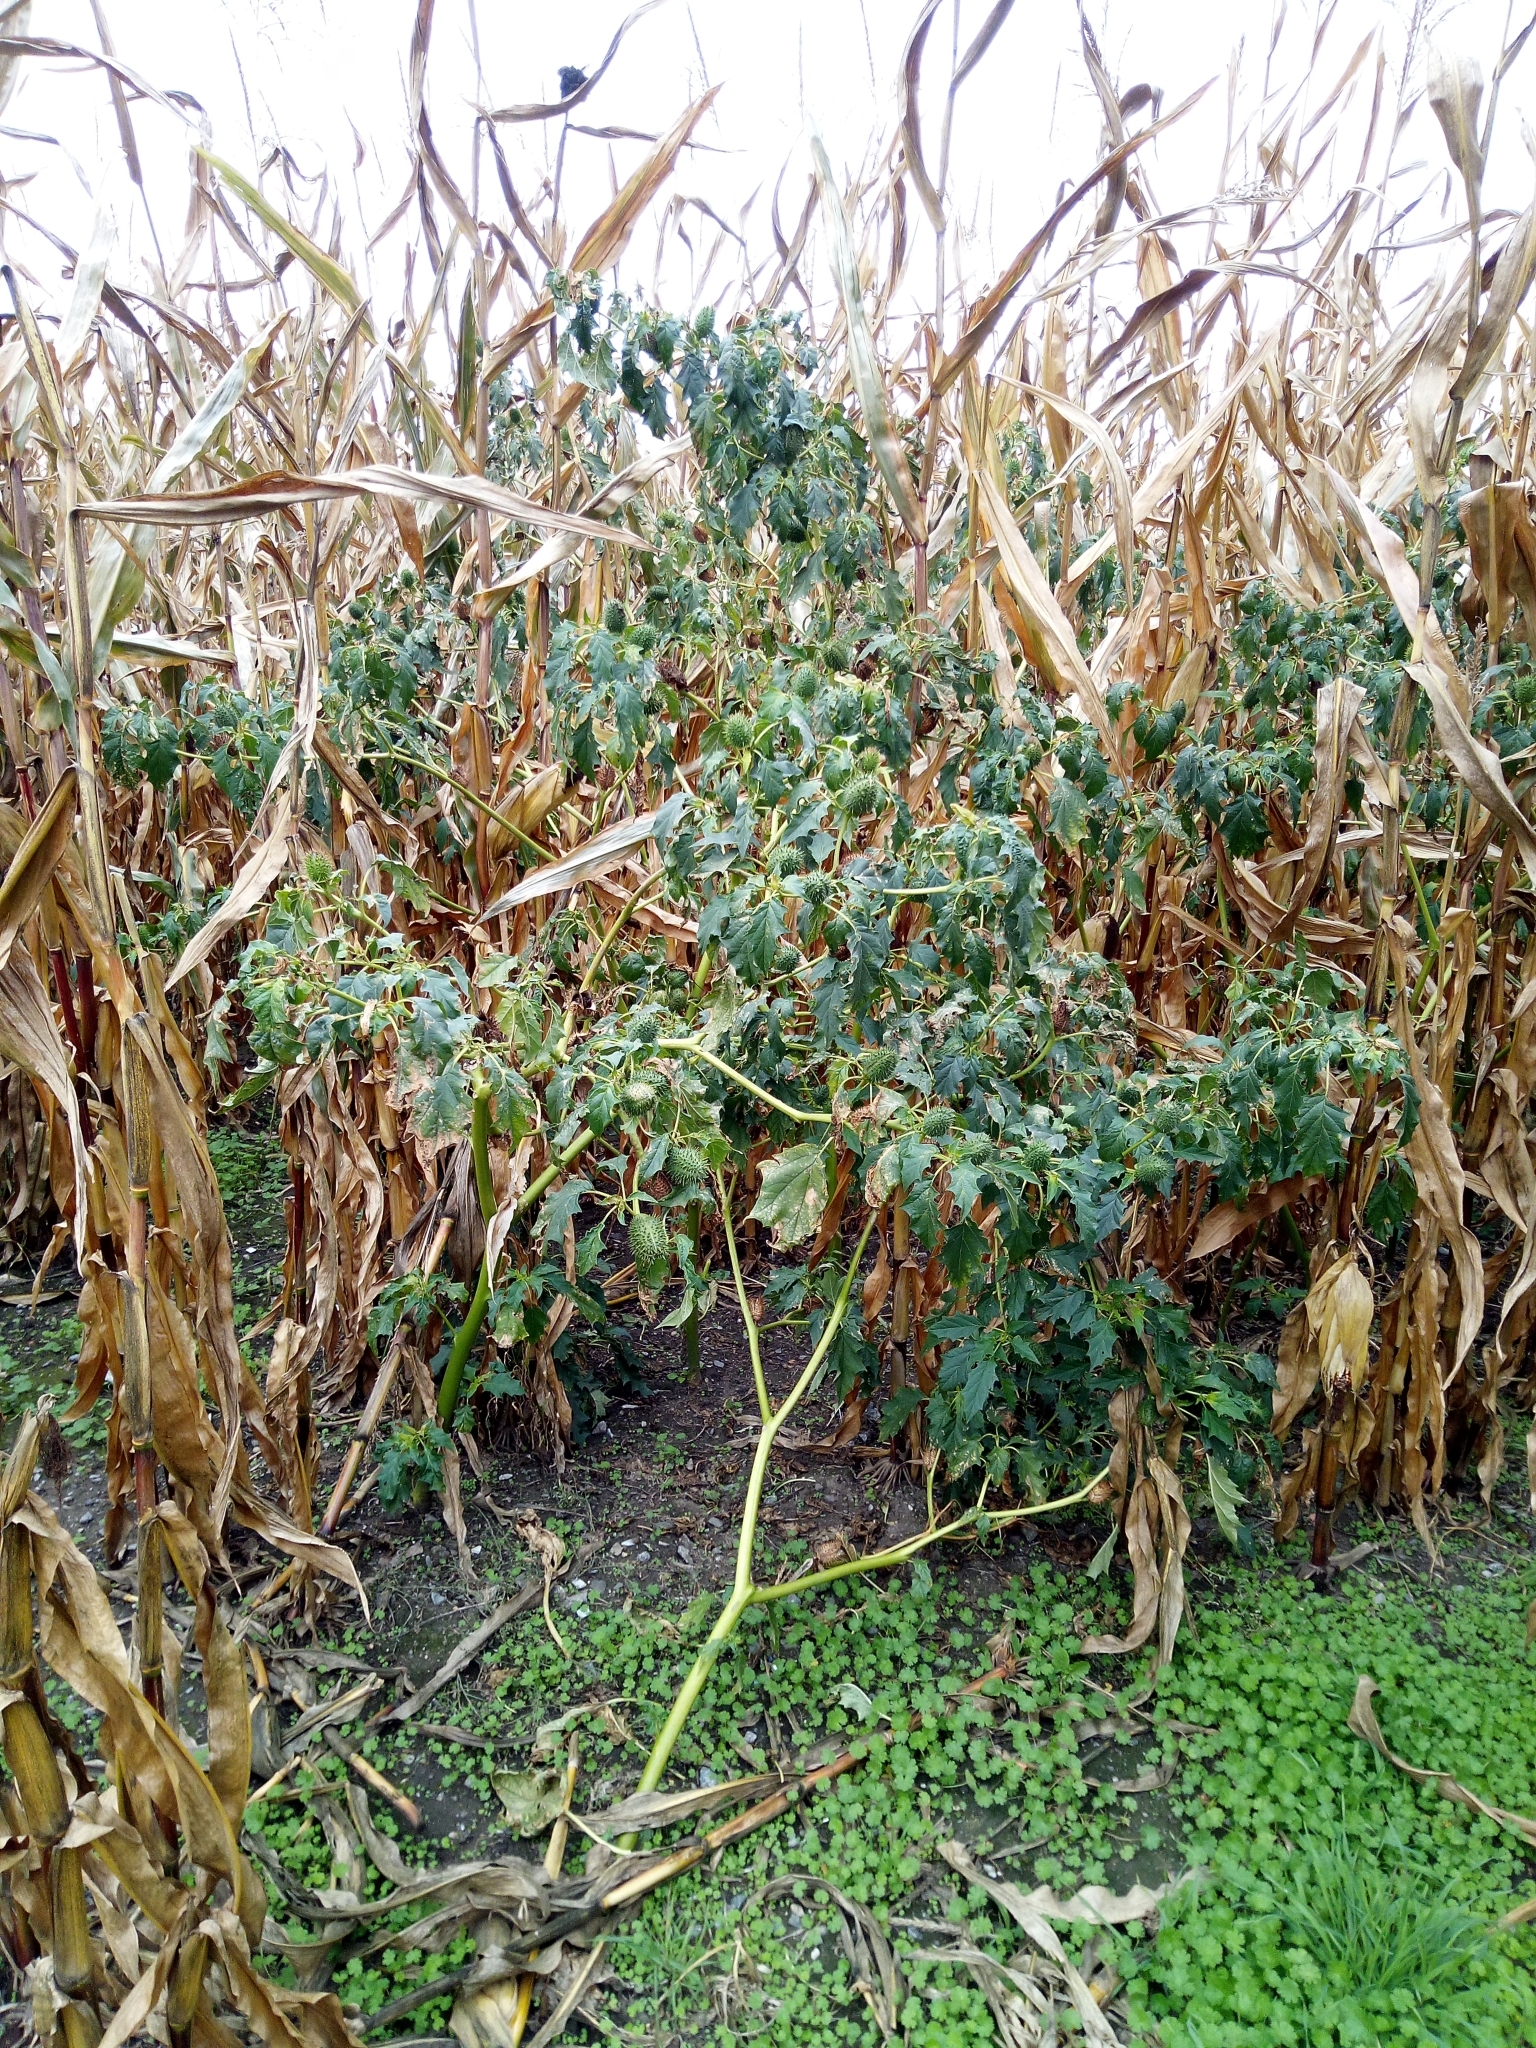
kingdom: Plantae
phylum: Tracheophyta
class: Magnoliopsida
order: Solanales
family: Solanaceae
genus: Datura
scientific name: Datura stramonium
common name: Thorn-apple
